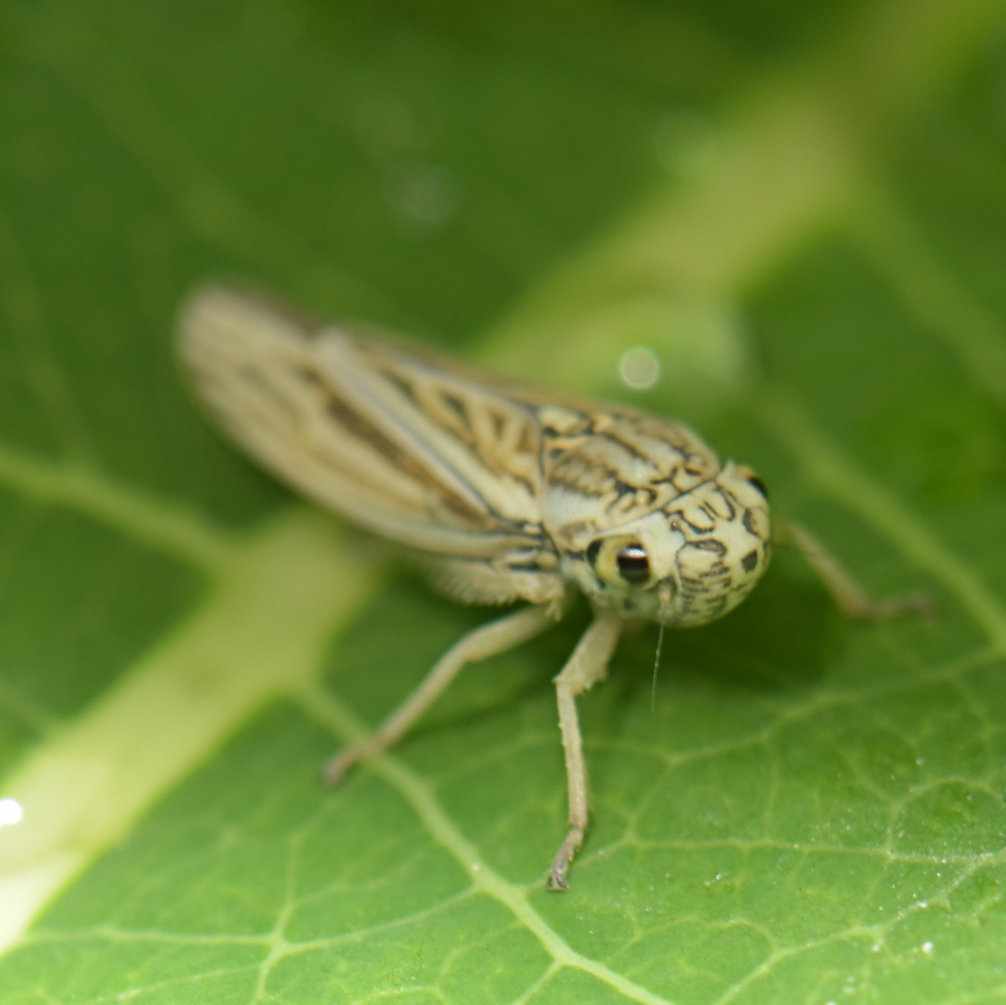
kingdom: Animalia
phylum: Arthropoda
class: Insecta
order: Hemiptera
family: Cicadellidae
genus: Neokolla
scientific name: Neokolla hieroglyphica
